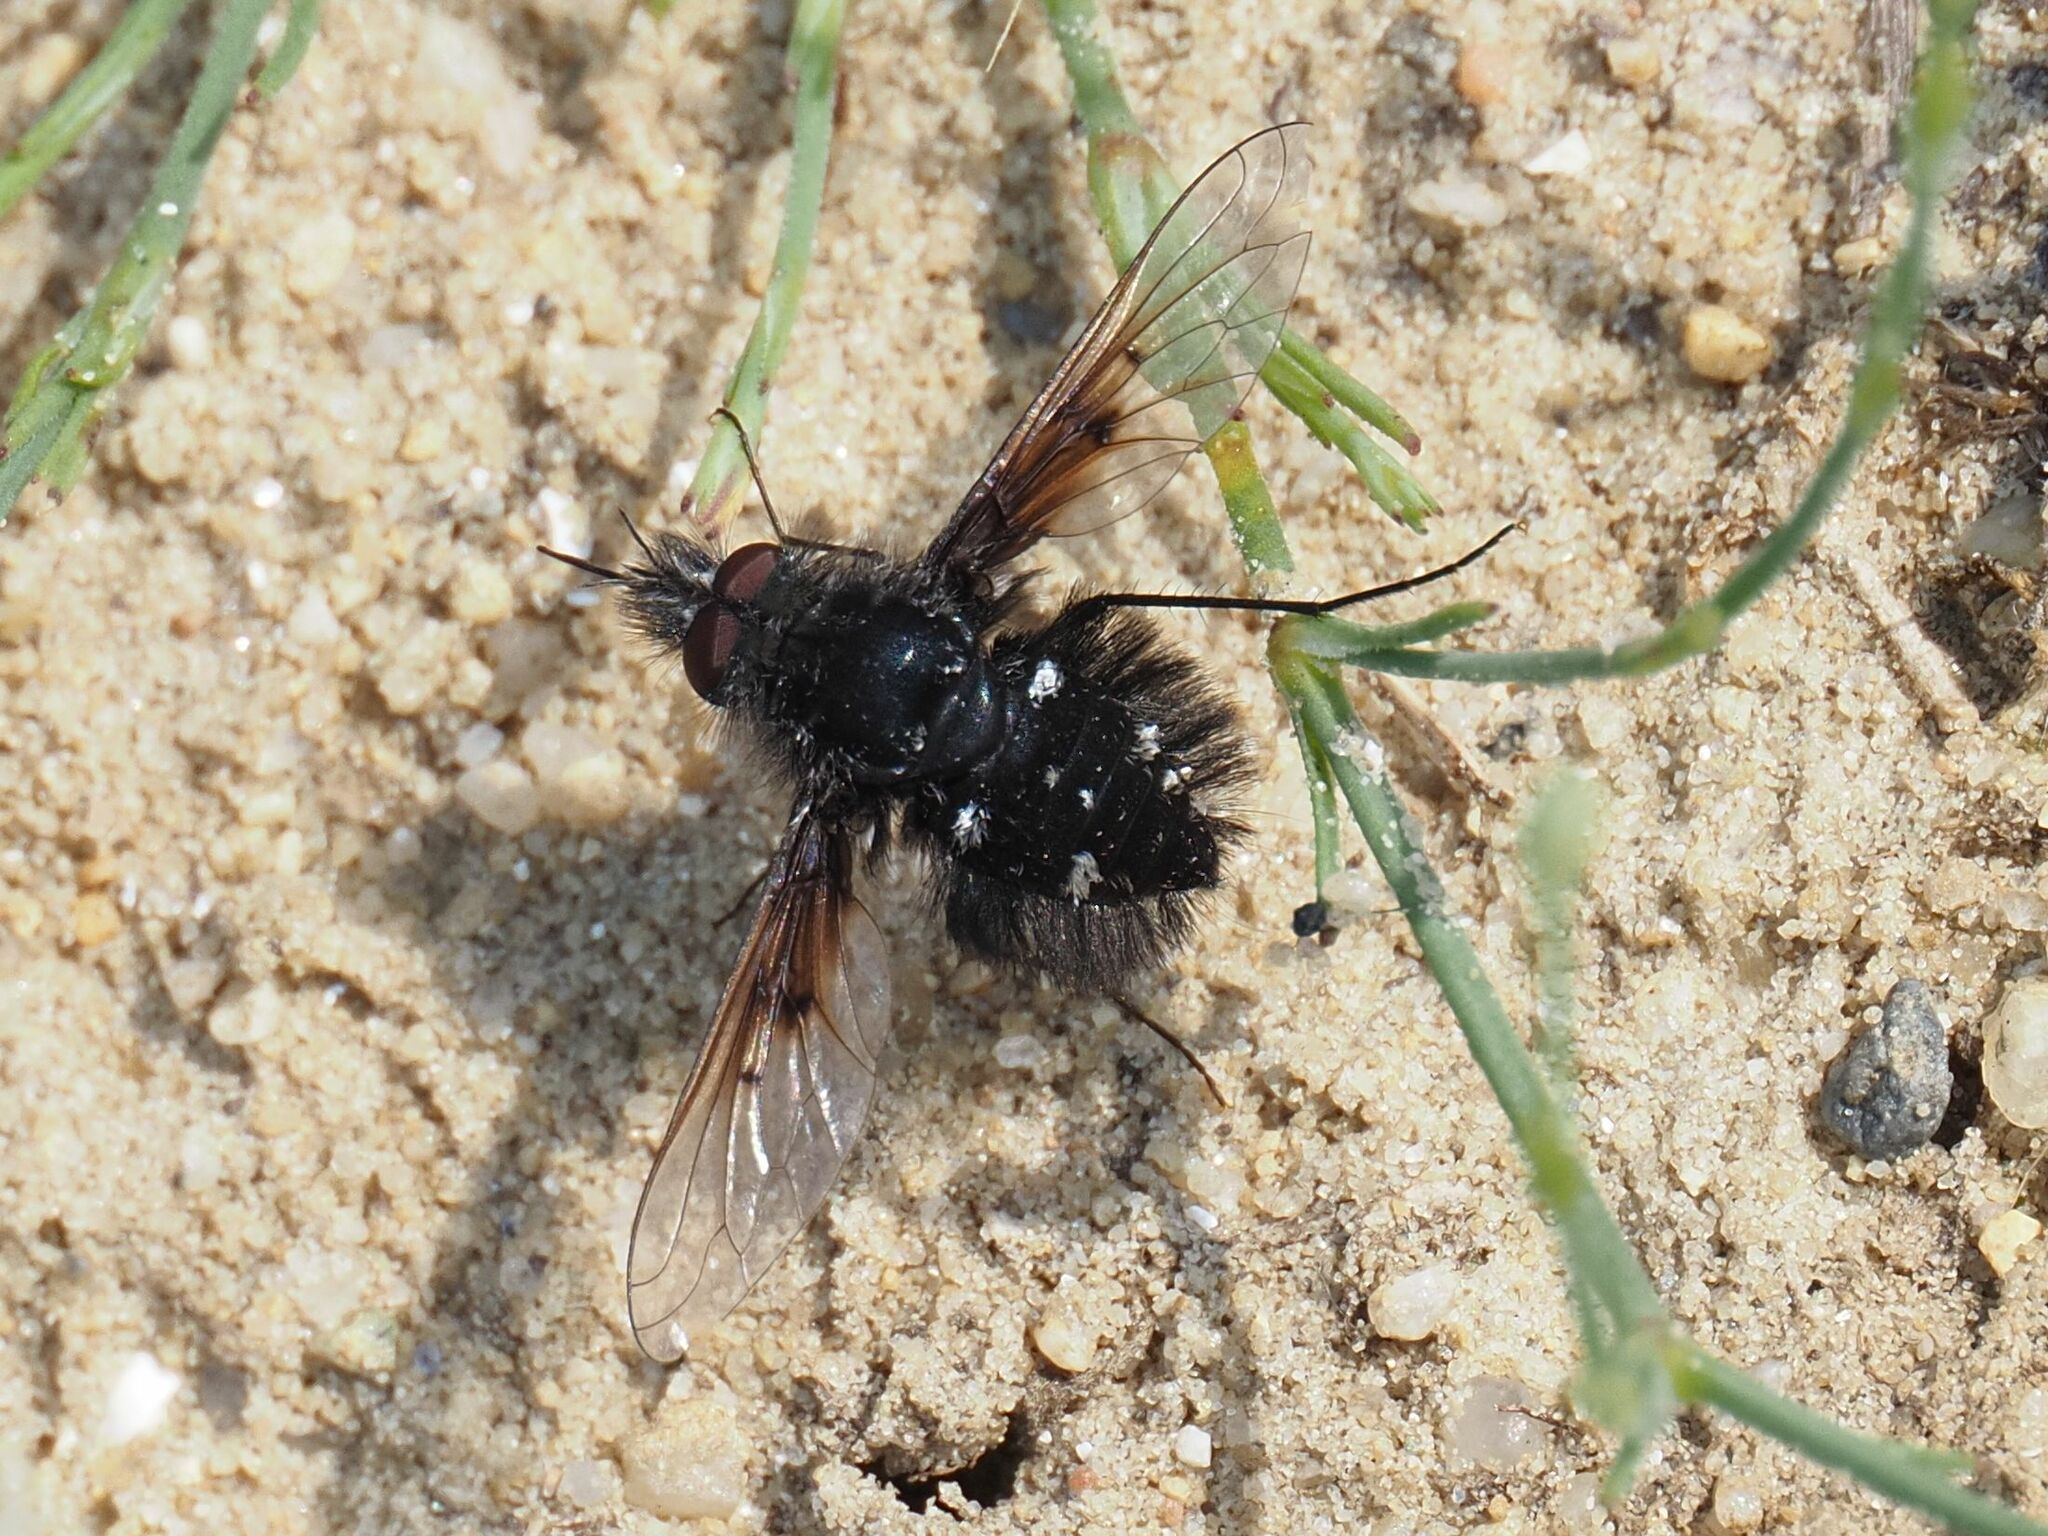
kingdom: Animalia
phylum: Arthropoda
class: Insecta
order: Diptera
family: Bombyliidae
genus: Bombylella
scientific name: Bombylella atra
